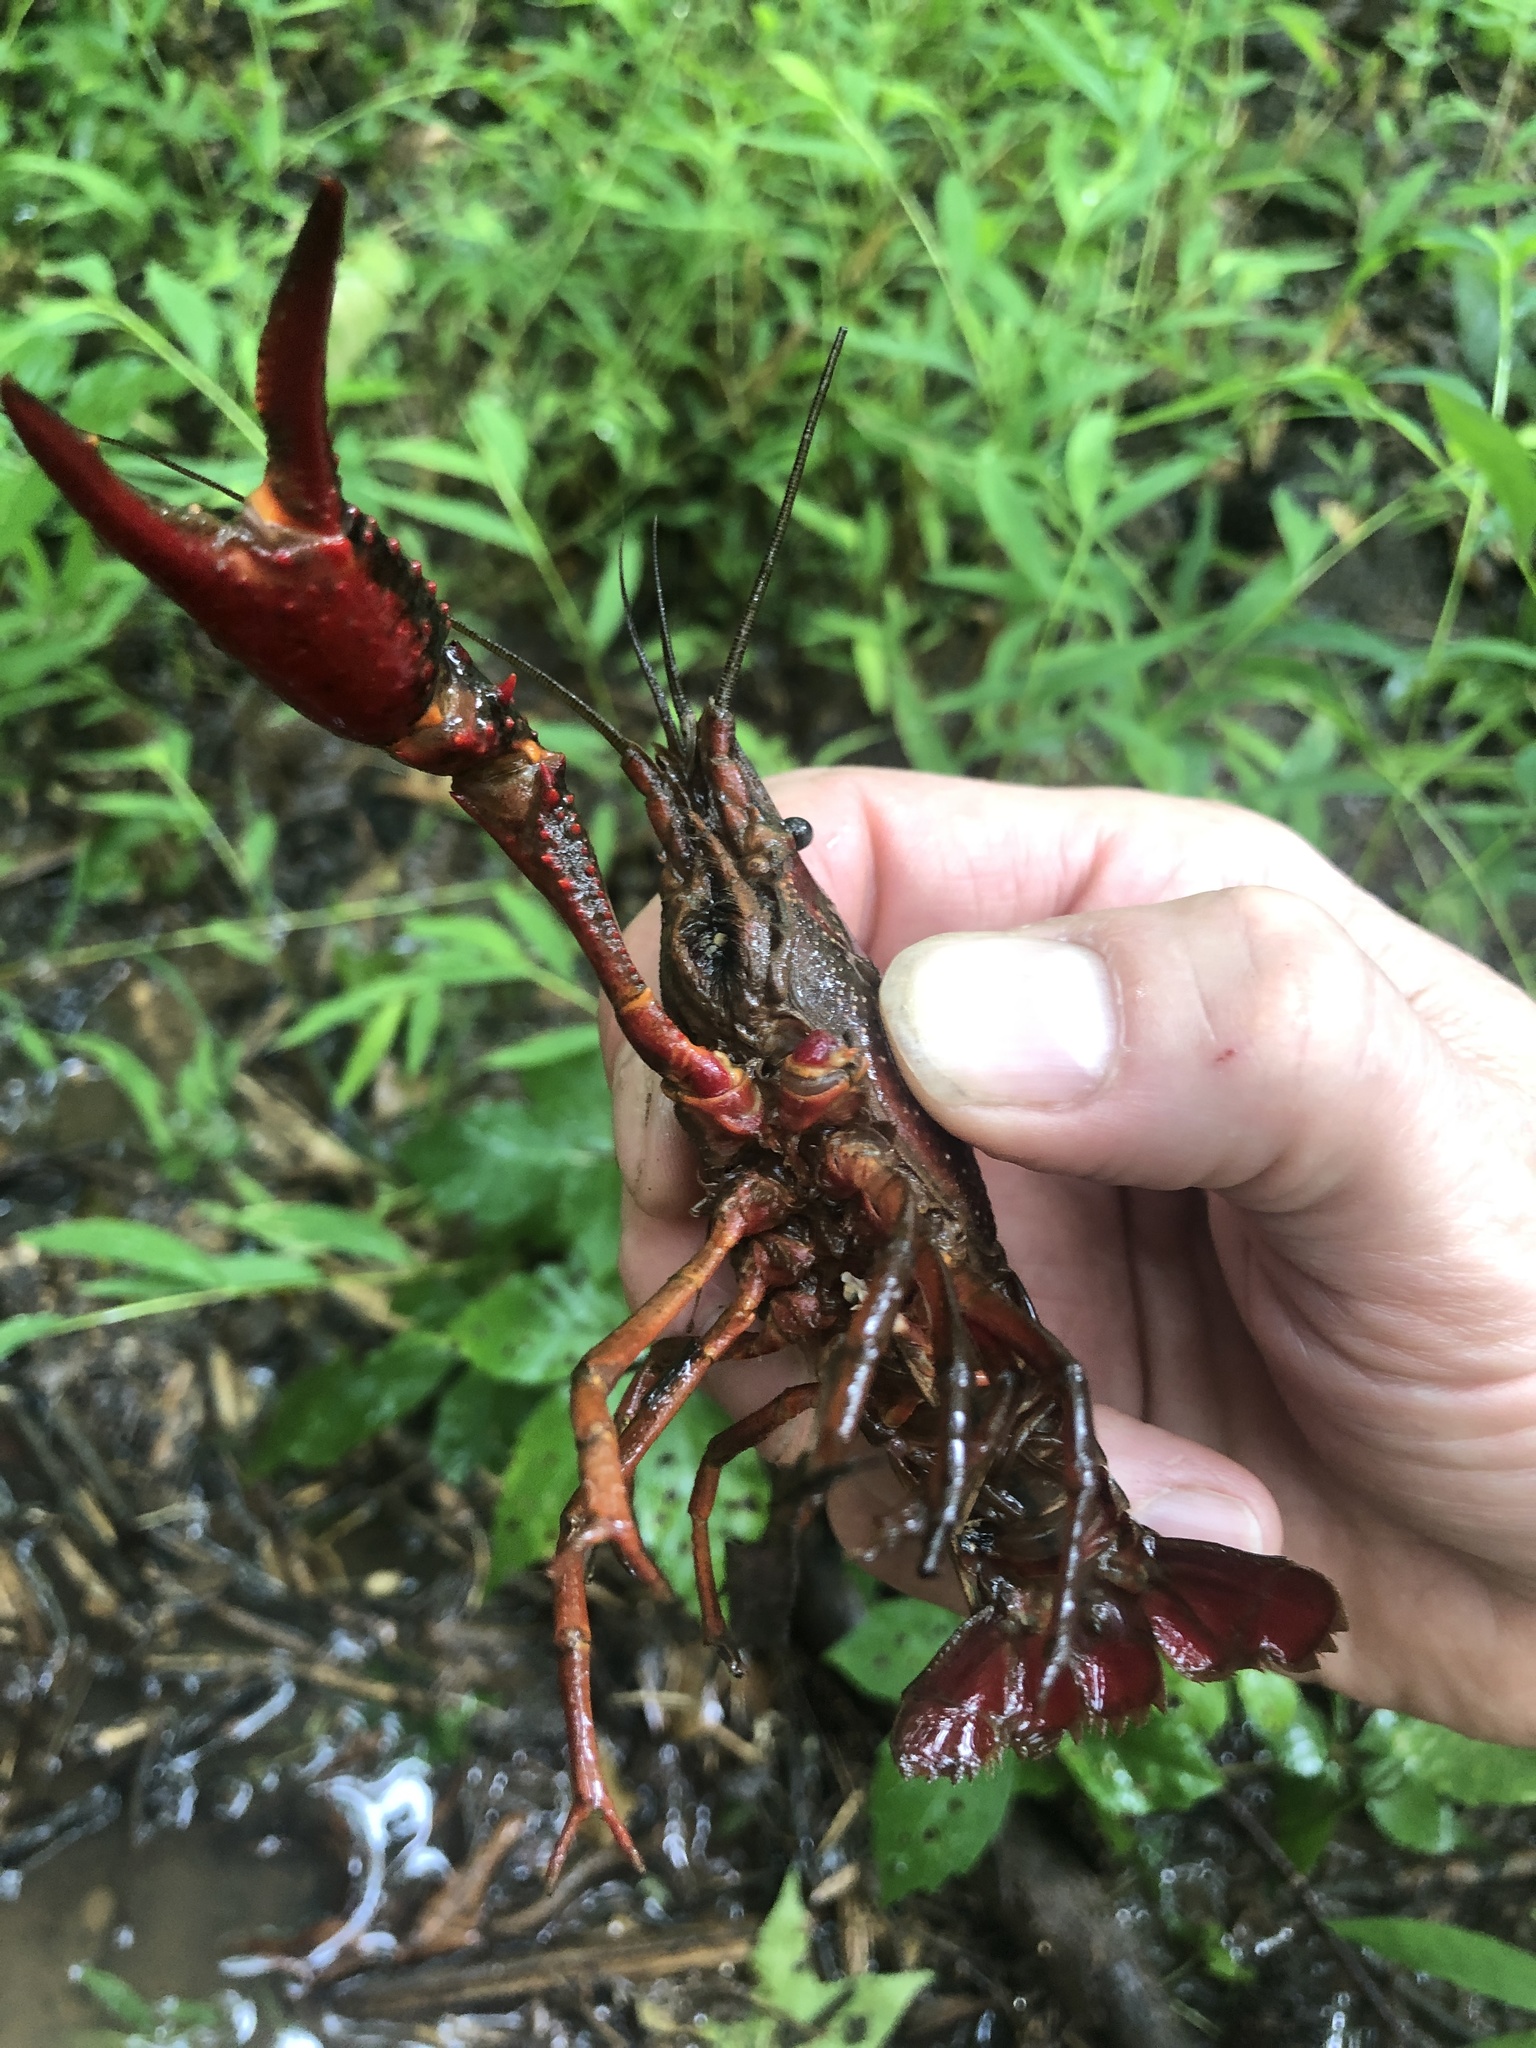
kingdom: Animalia
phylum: Arthropoda
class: Malacostraca
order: Decapoda
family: Cambaridae
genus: Procambarus
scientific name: Procambarus clarkii
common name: Red swamp crayfish
